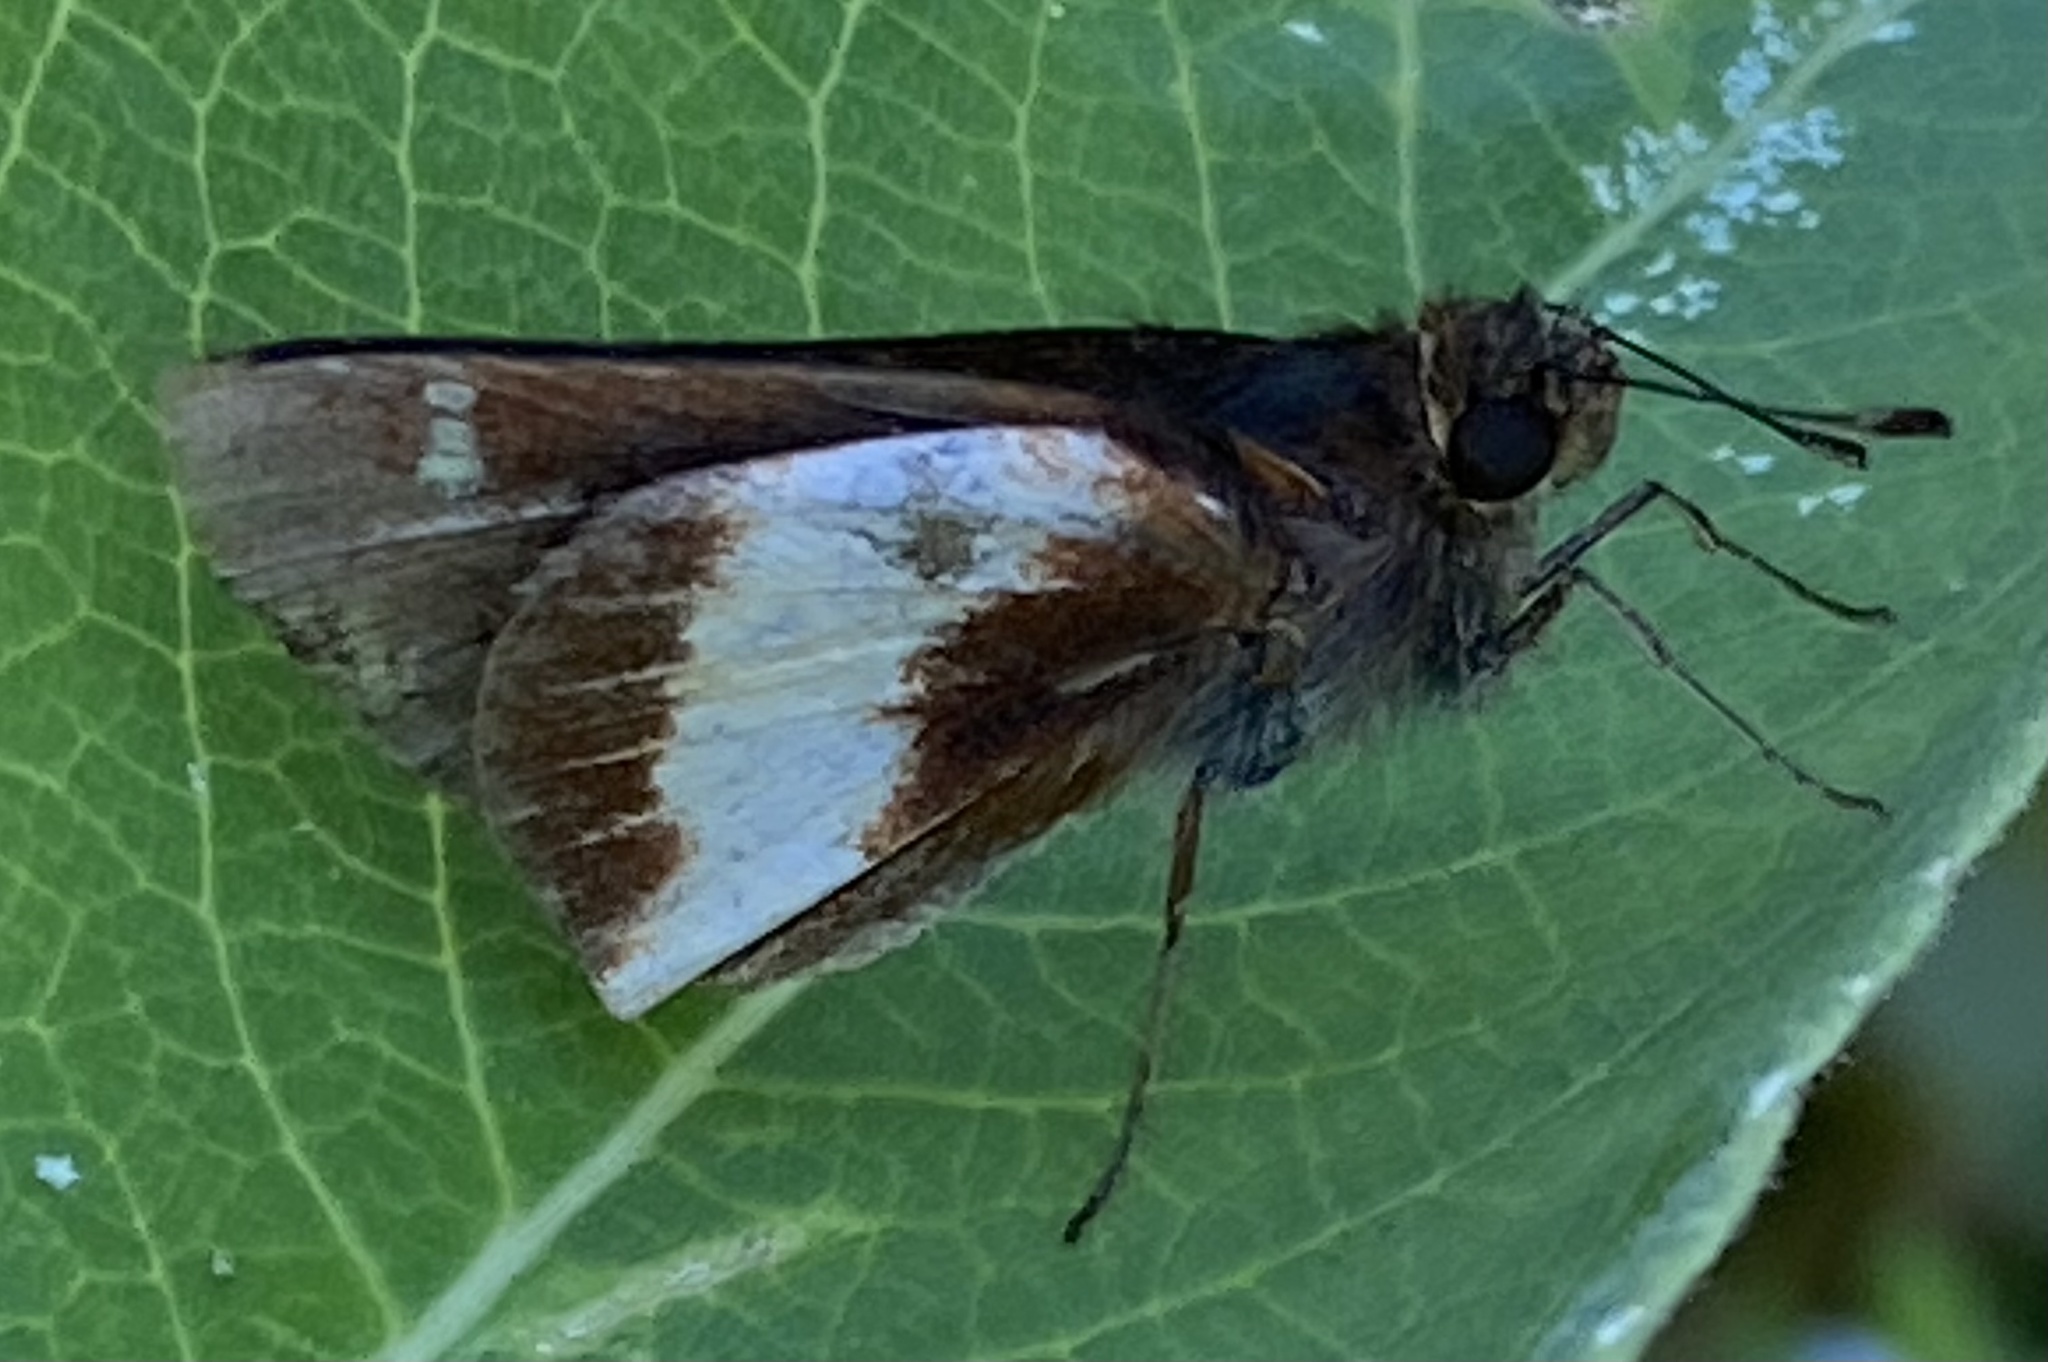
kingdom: Animalia
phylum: Arthropoda
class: Insecta
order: Lepidoptera
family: Hesperiidae
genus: Vettius
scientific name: Vettius ploetzii
